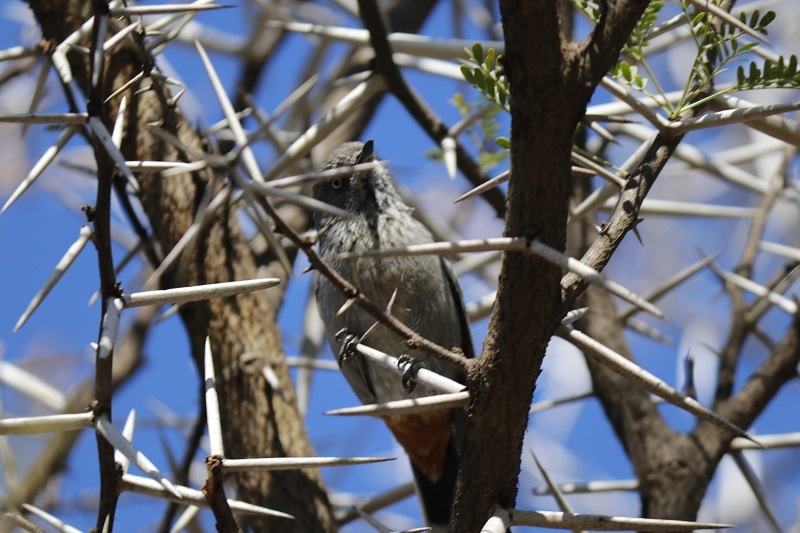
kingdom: Animalia
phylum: Chordata
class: Aves
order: Passeriformes
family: Sylviidae
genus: Curruca
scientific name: Curruca subcoerulea
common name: Chestnut-vented warbler
